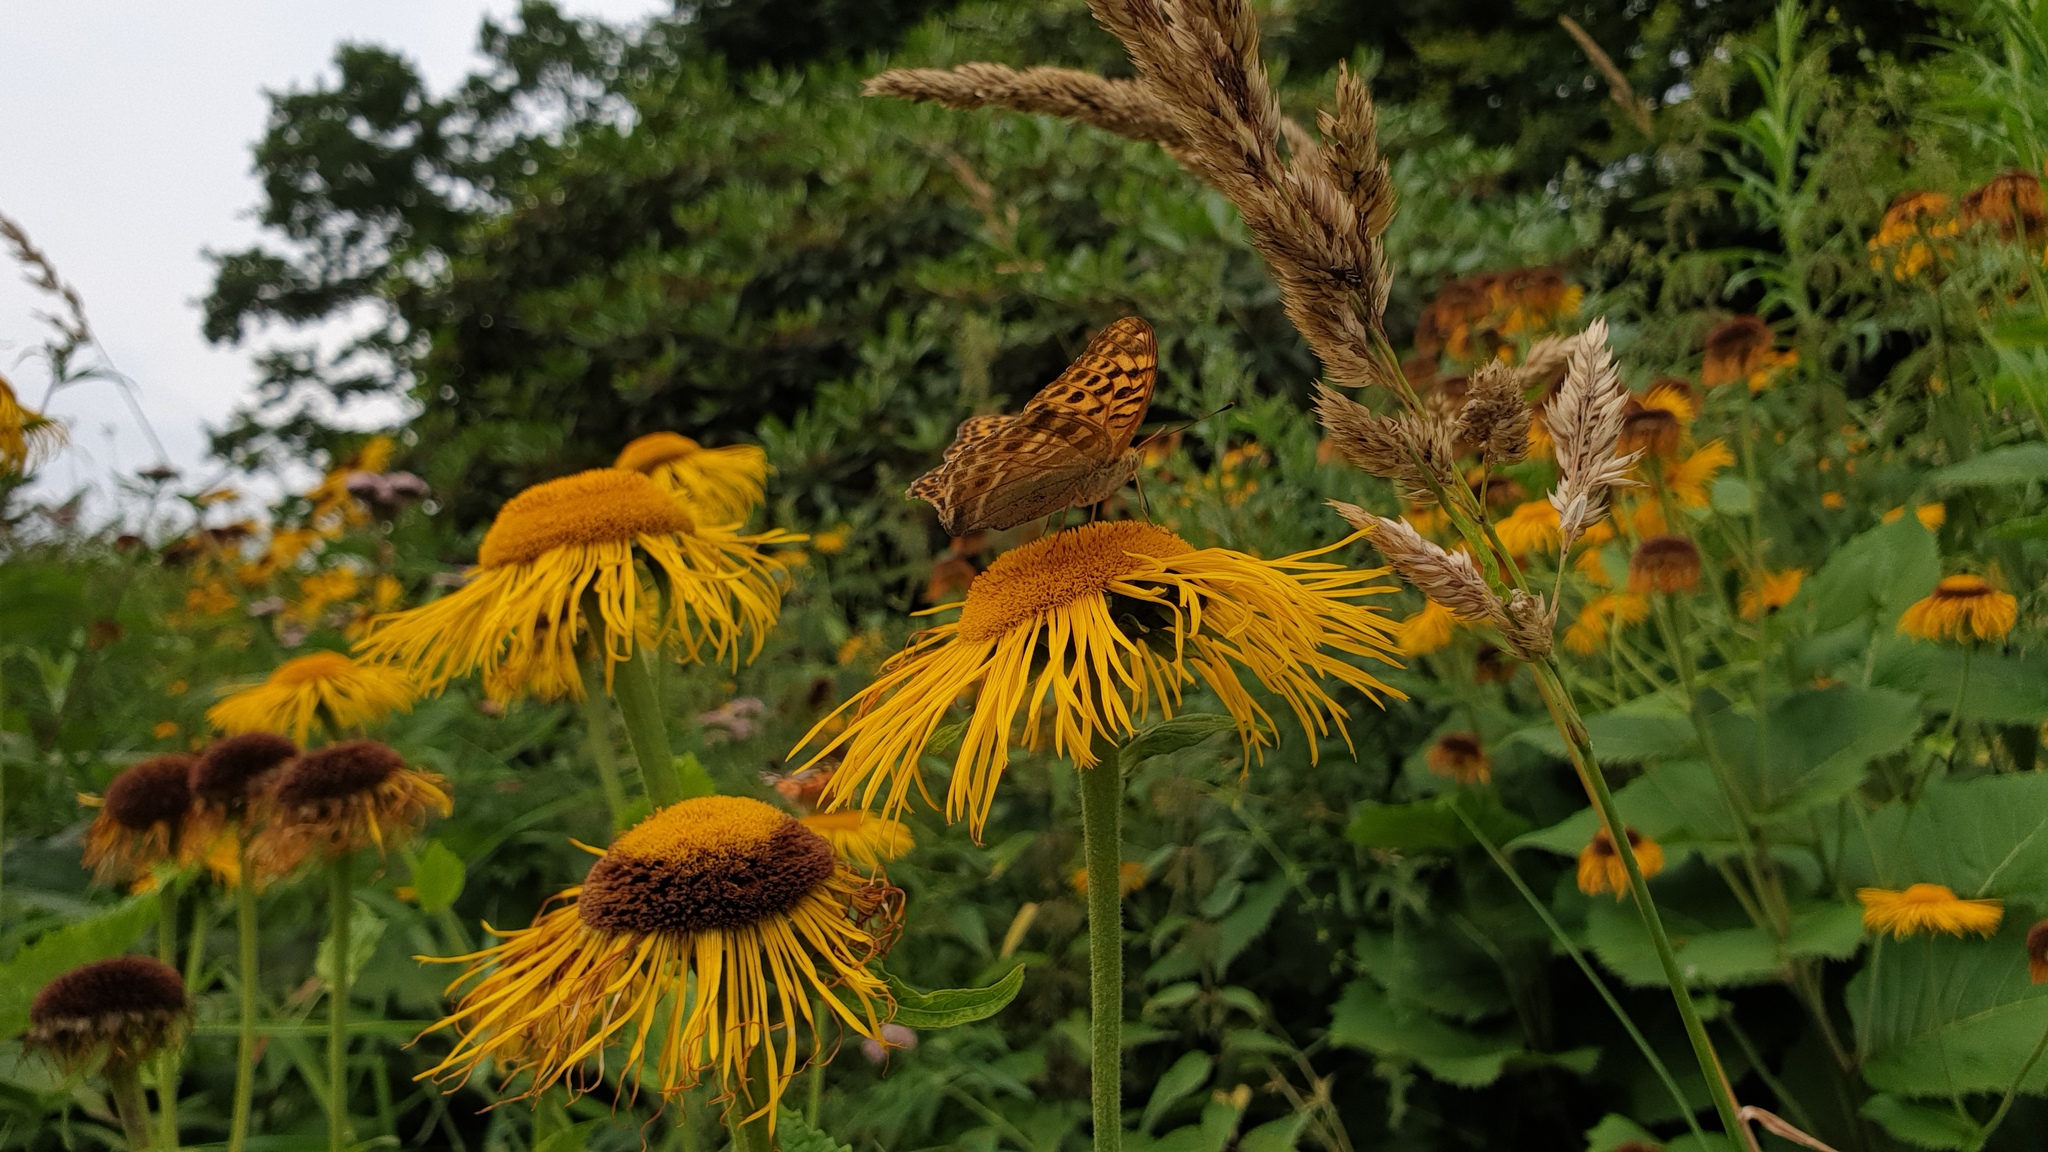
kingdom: Animalia
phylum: Arthropoda
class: Insecta
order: Lepidoptera
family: Nymphalidae
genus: Argynnis
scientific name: Argynnis paphia
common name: Silver-washed fritillary
